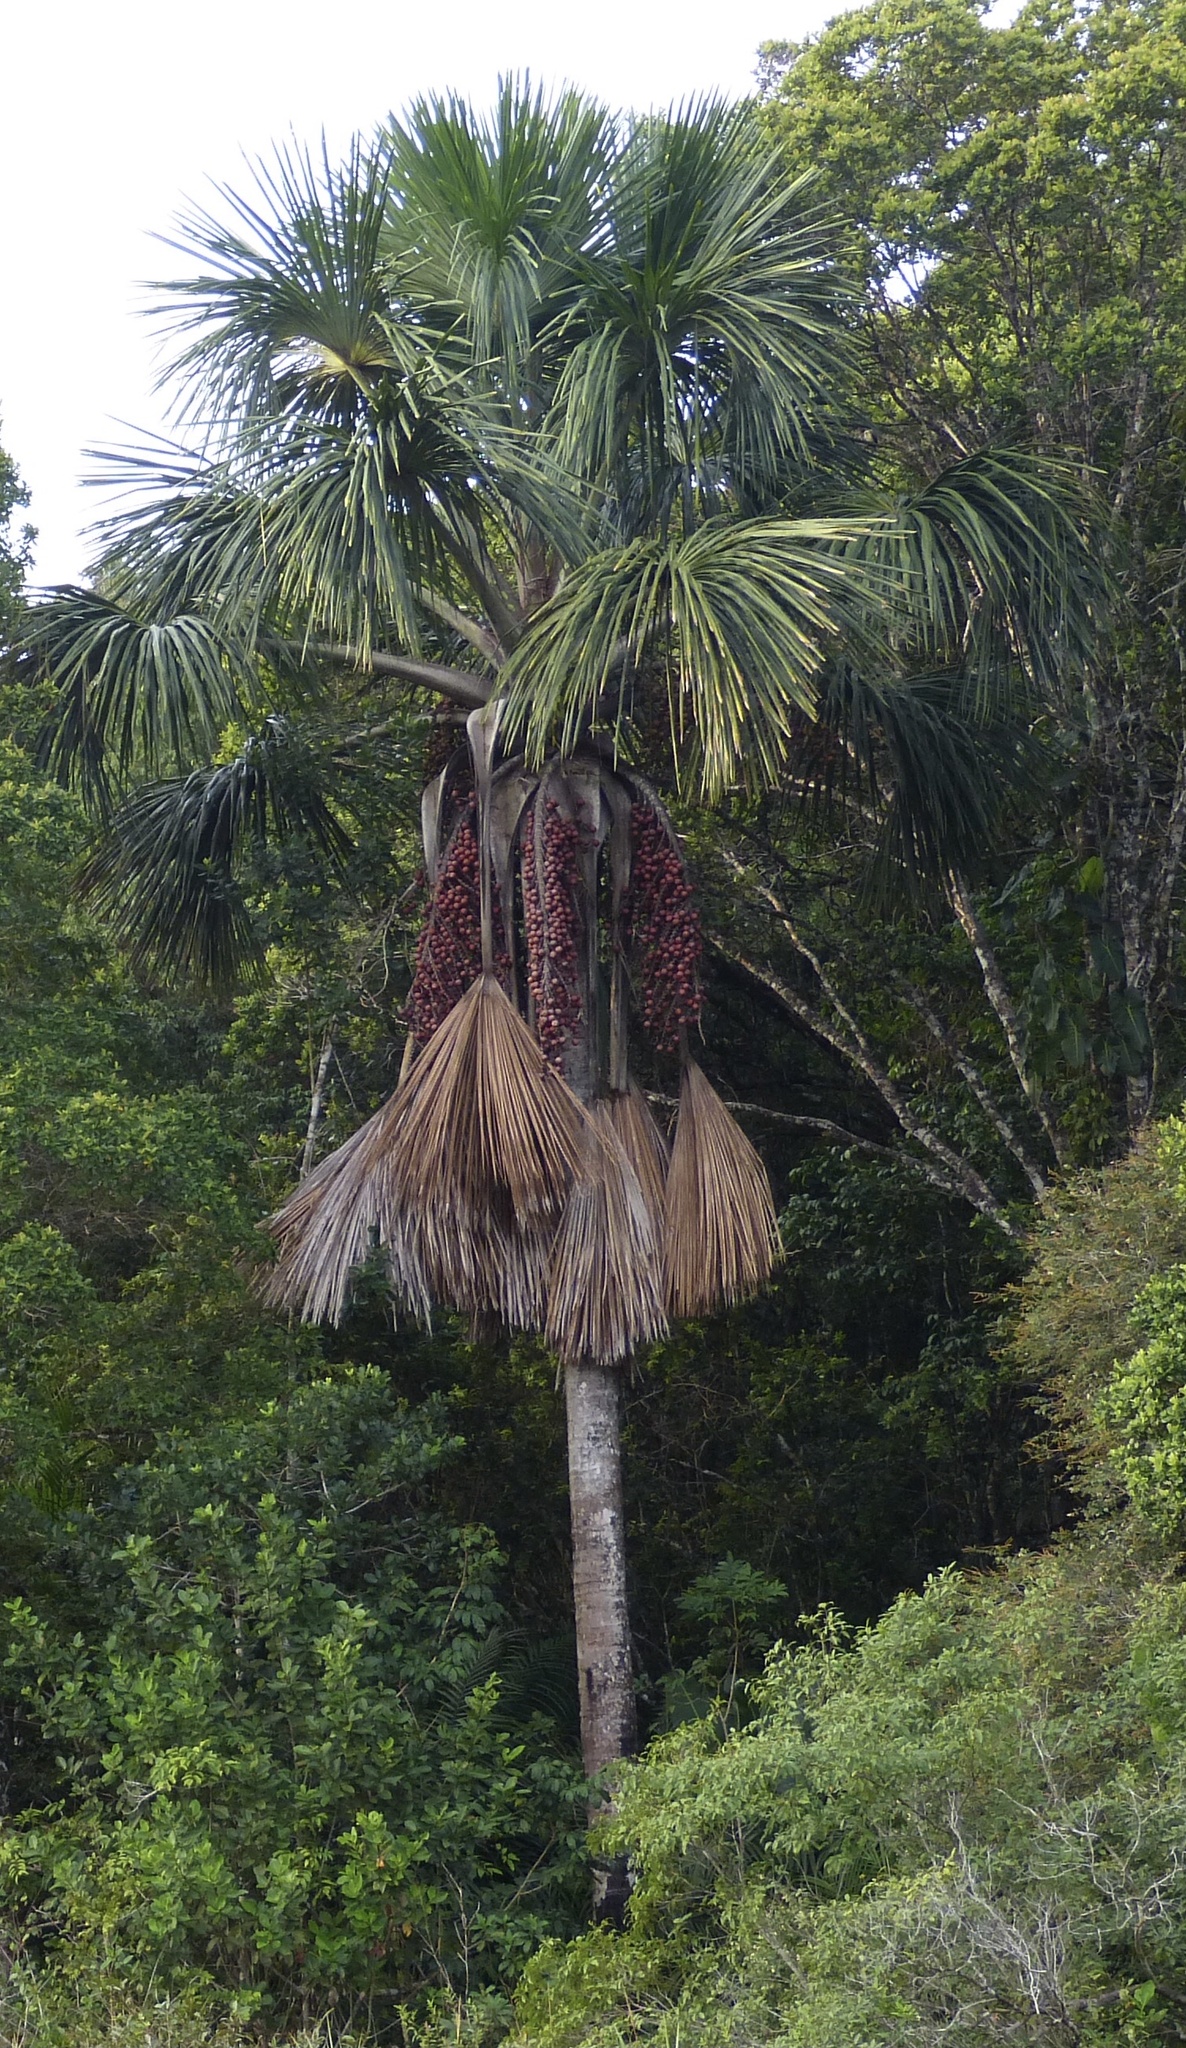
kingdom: Plantae
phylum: Tracheophyta
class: Liliopsida
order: Arecales
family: Arecaceae
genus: Mauritia
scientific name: Mauritia flexuosa
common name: Tree-of-life
